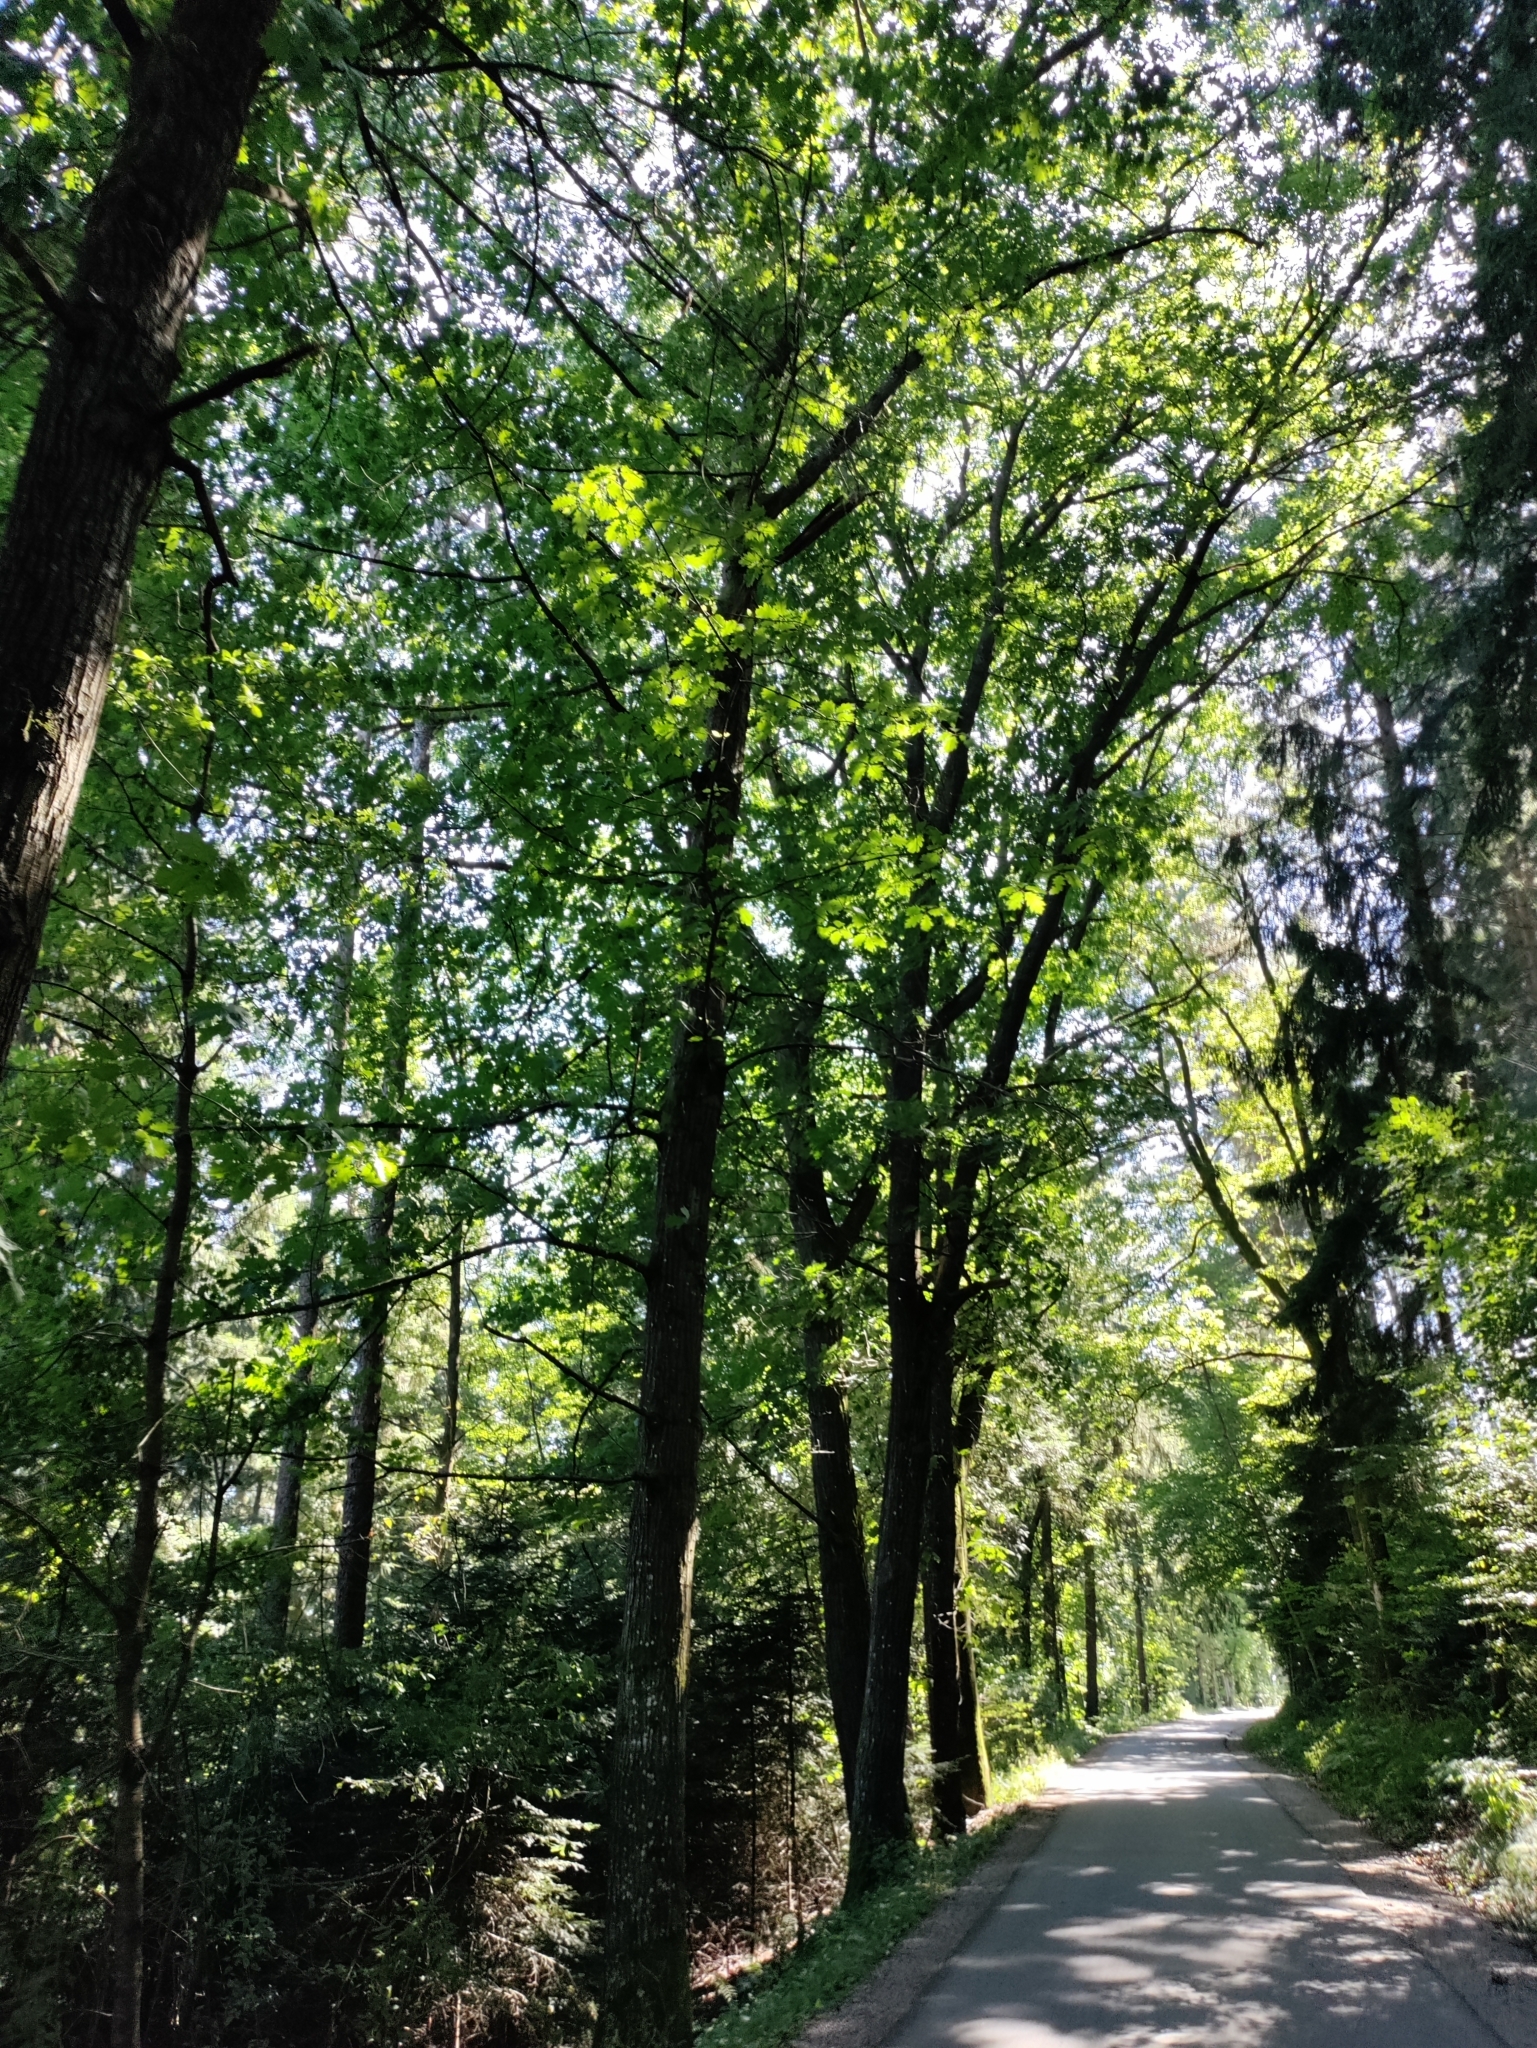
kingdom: Plantae
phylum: Tracheophyta
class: Magnoliopsida
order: Fagales
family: Fagaceae
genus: Quercus
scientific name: Quercus rubra
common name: Red oak
